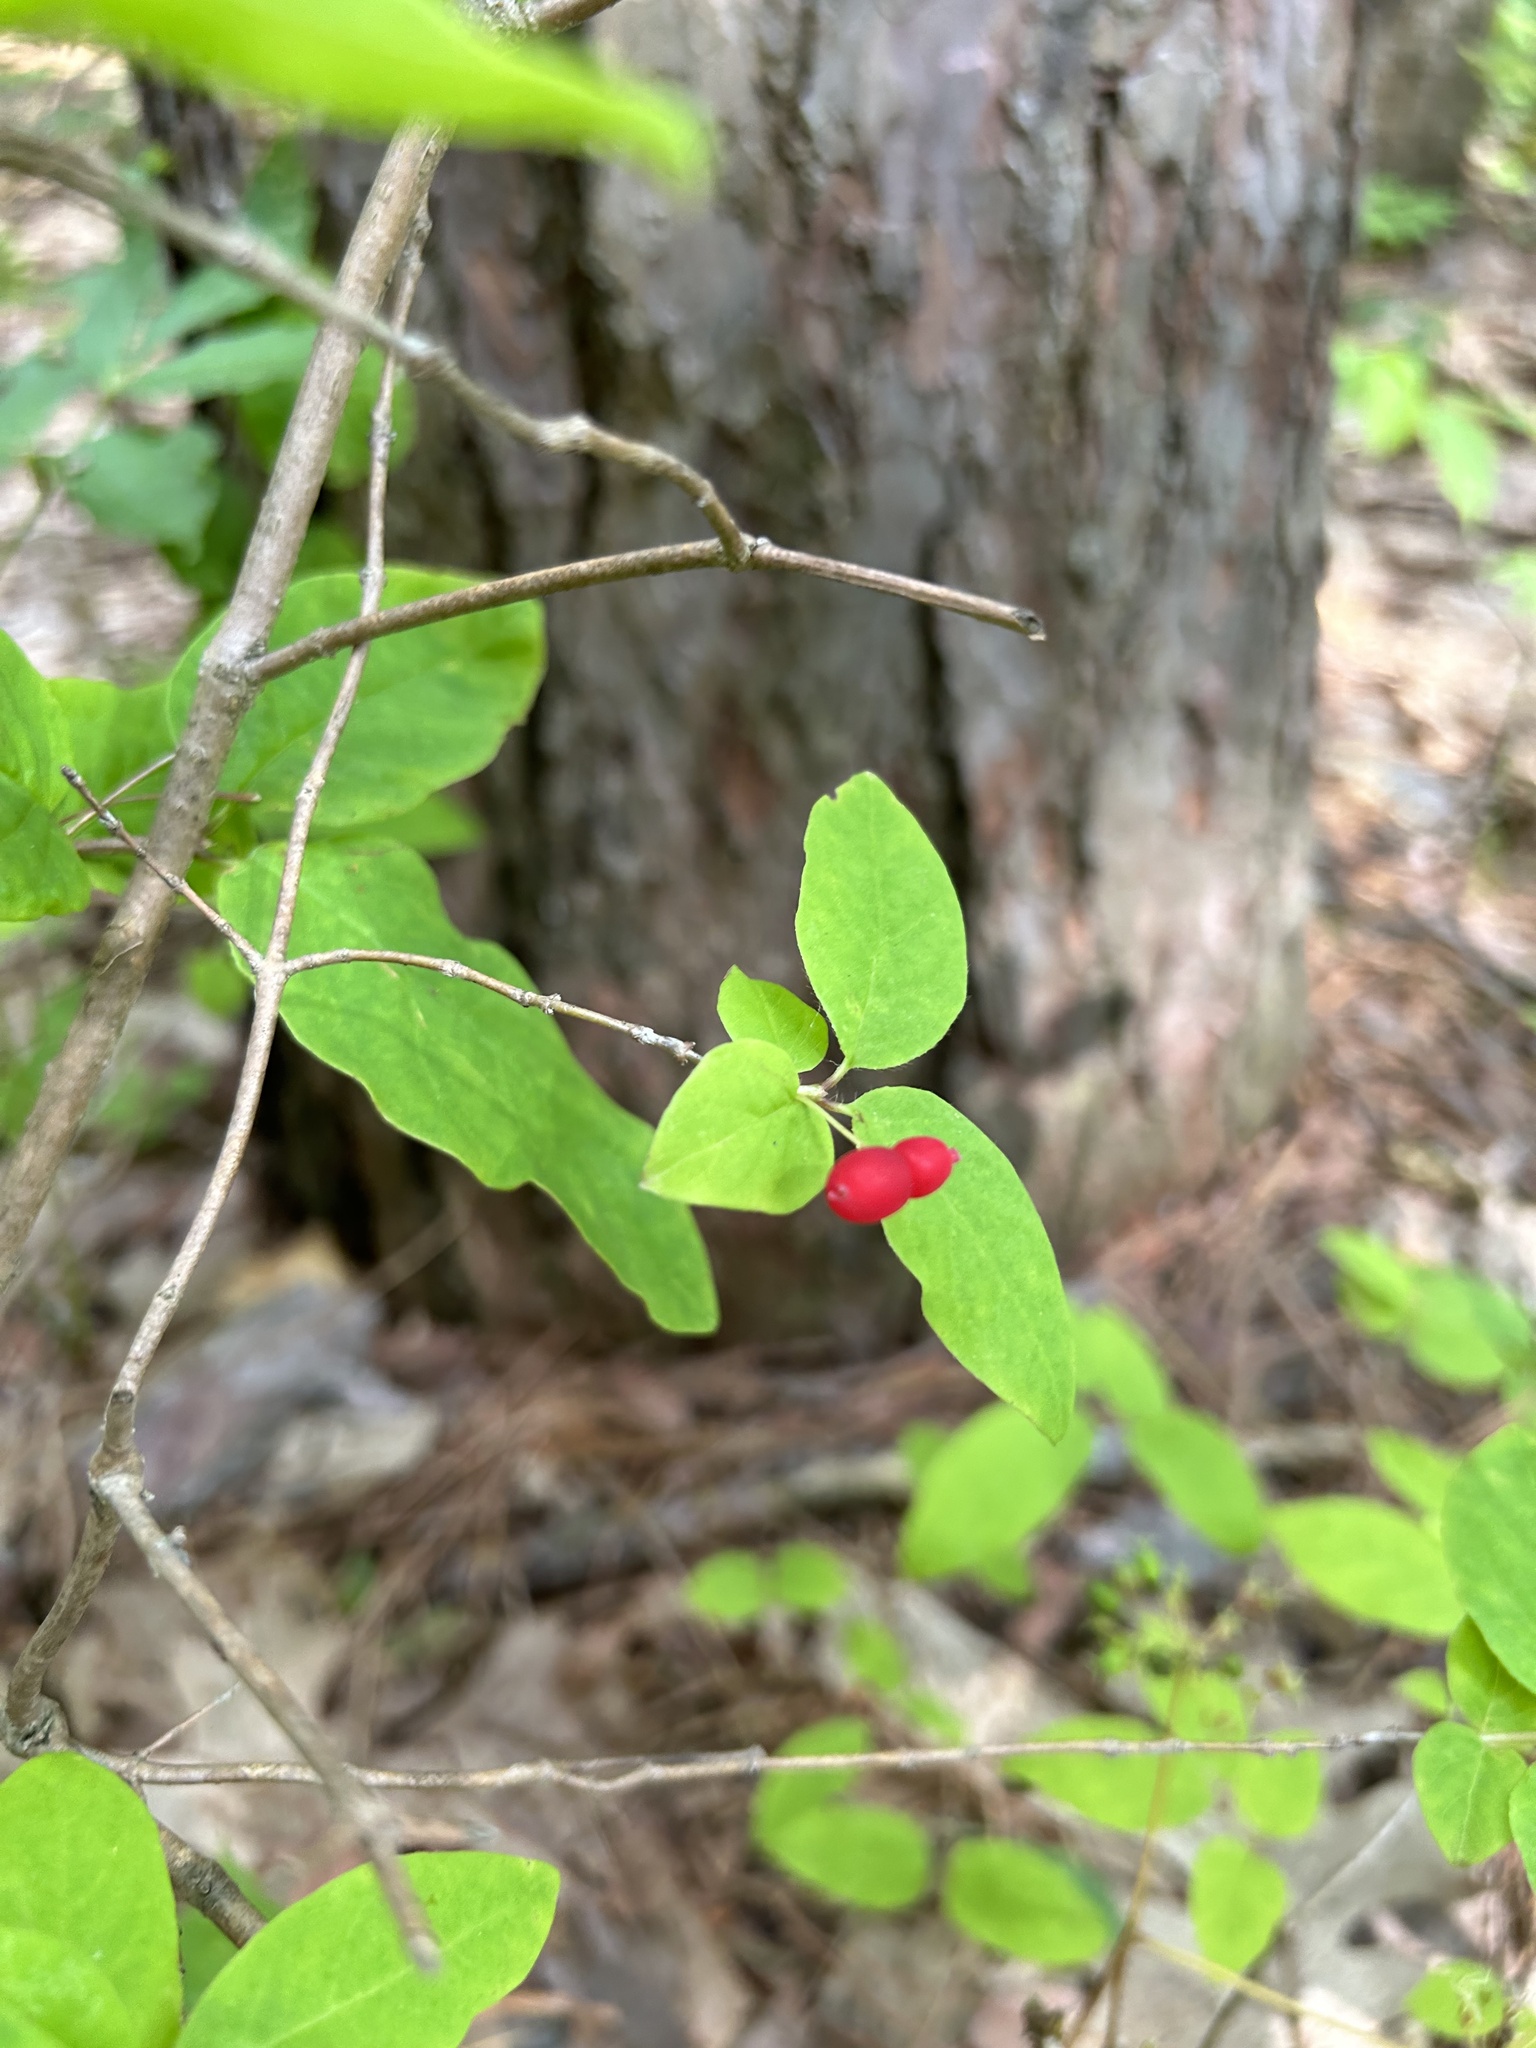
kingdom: Plantae
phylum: Tracheophyta
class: Magnoliopsida
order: Dipsacales
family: Caprifoliaceae
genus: Lonicera
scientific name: Lonicera canadensis
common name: American fly-honeysuckle
